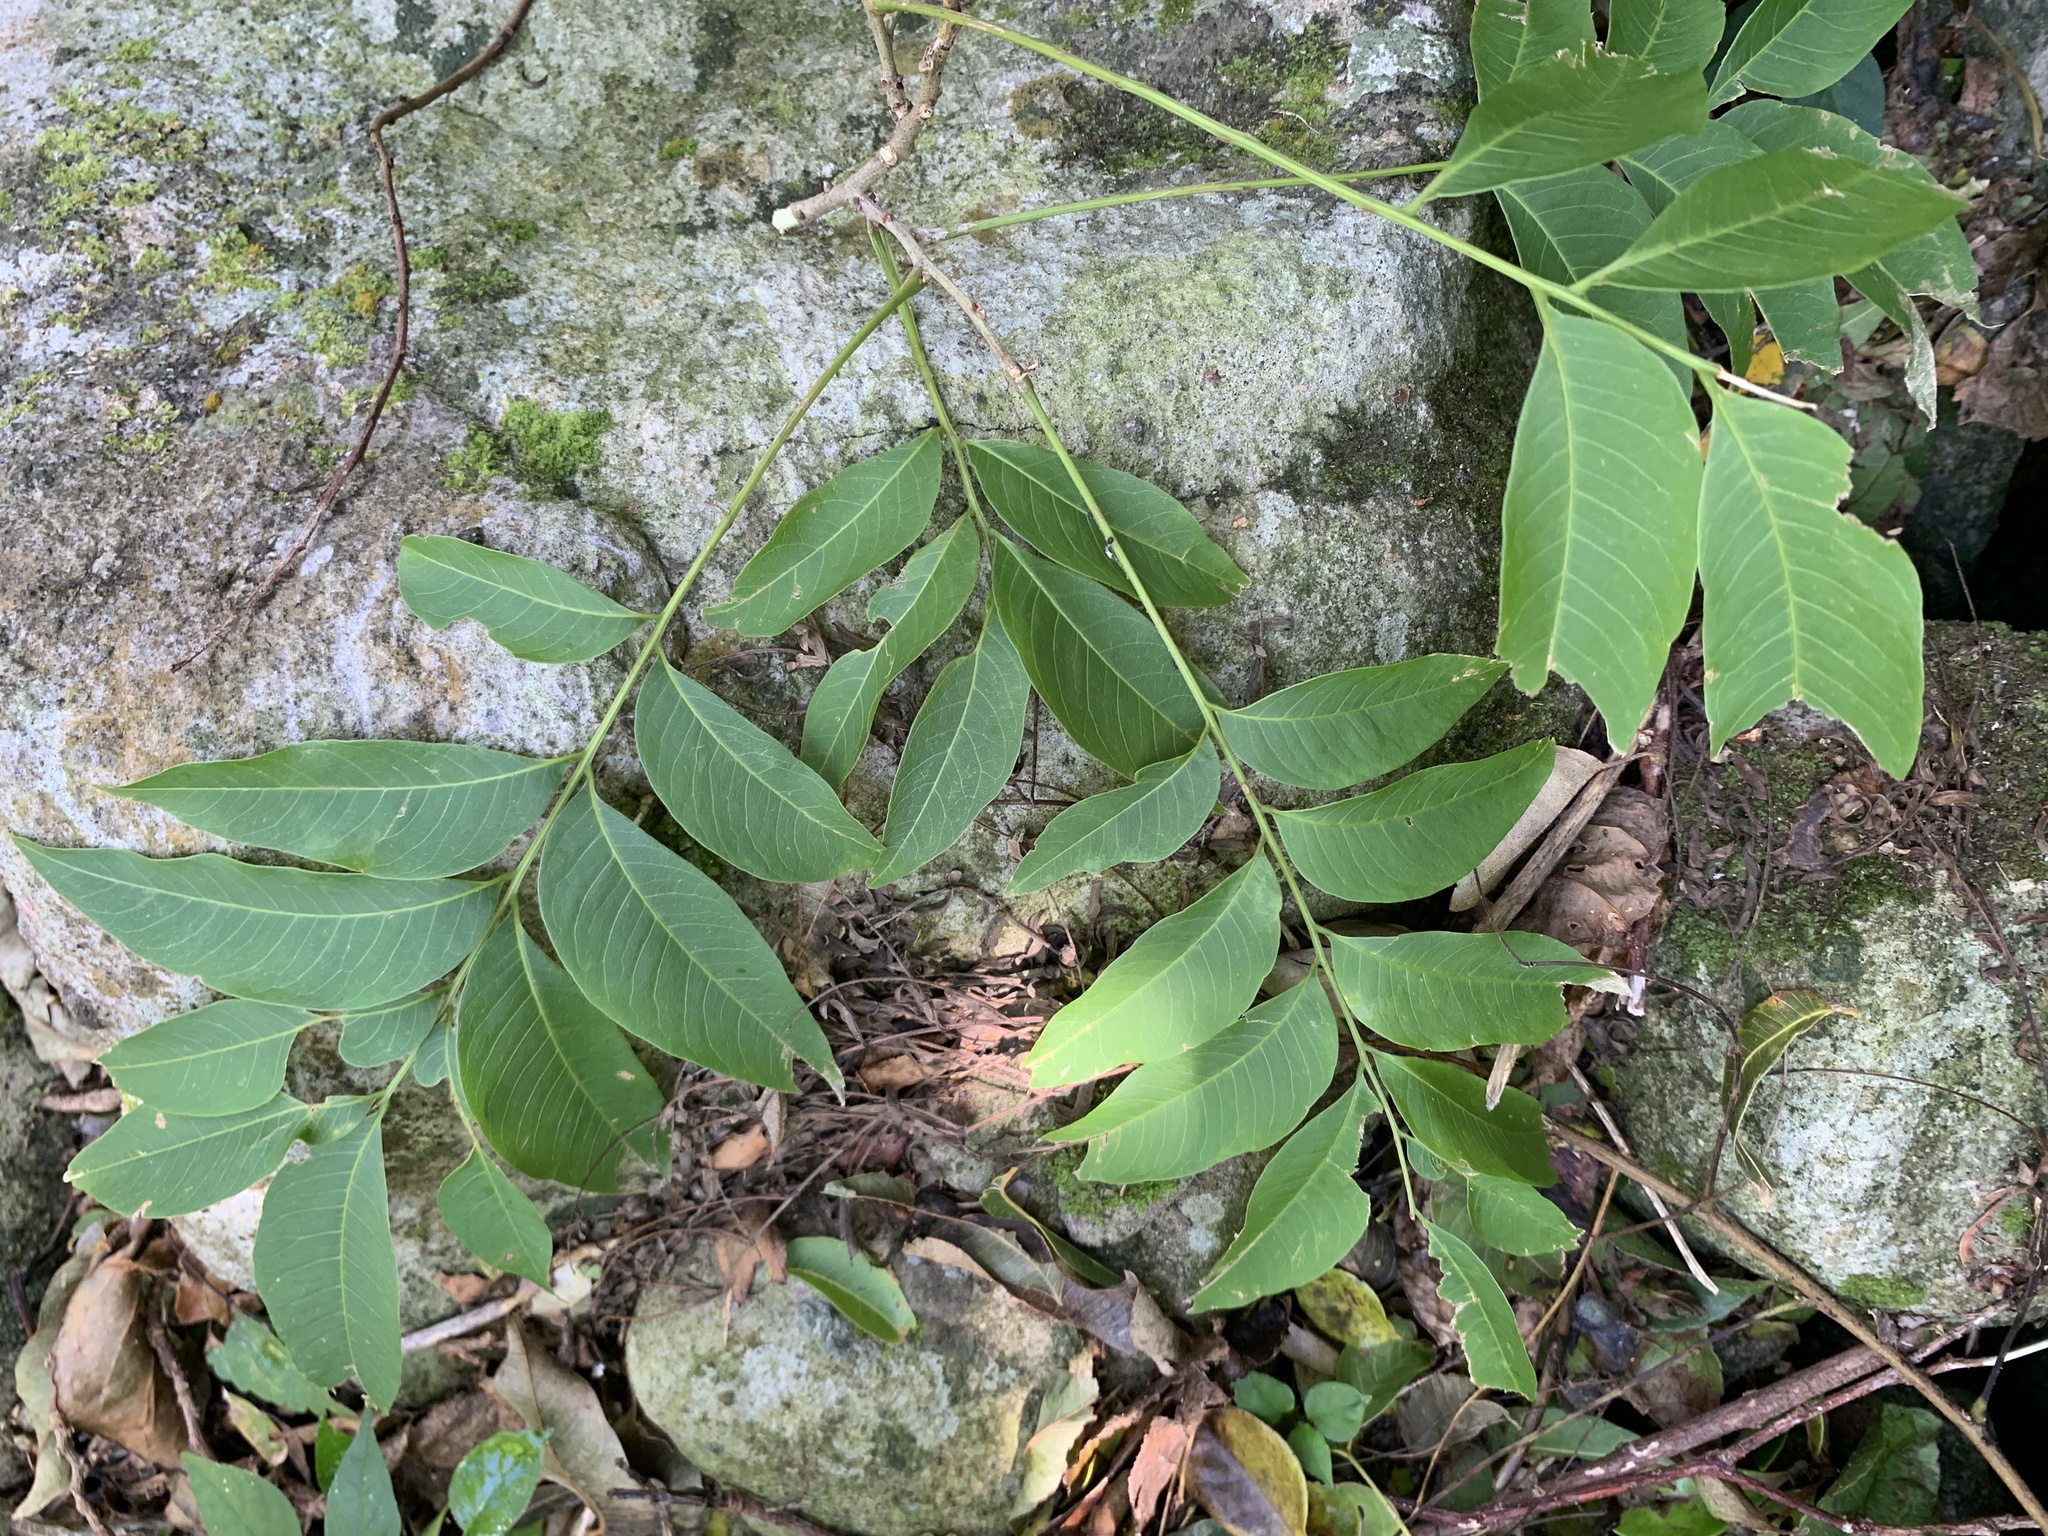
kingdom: Plantae
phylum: Tracheophyta
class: Magnoliopsida
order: Sapindales
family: Sapindaceae
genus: Sapindus
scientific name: Sapindus mukorossi
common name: Chinese soapberry
